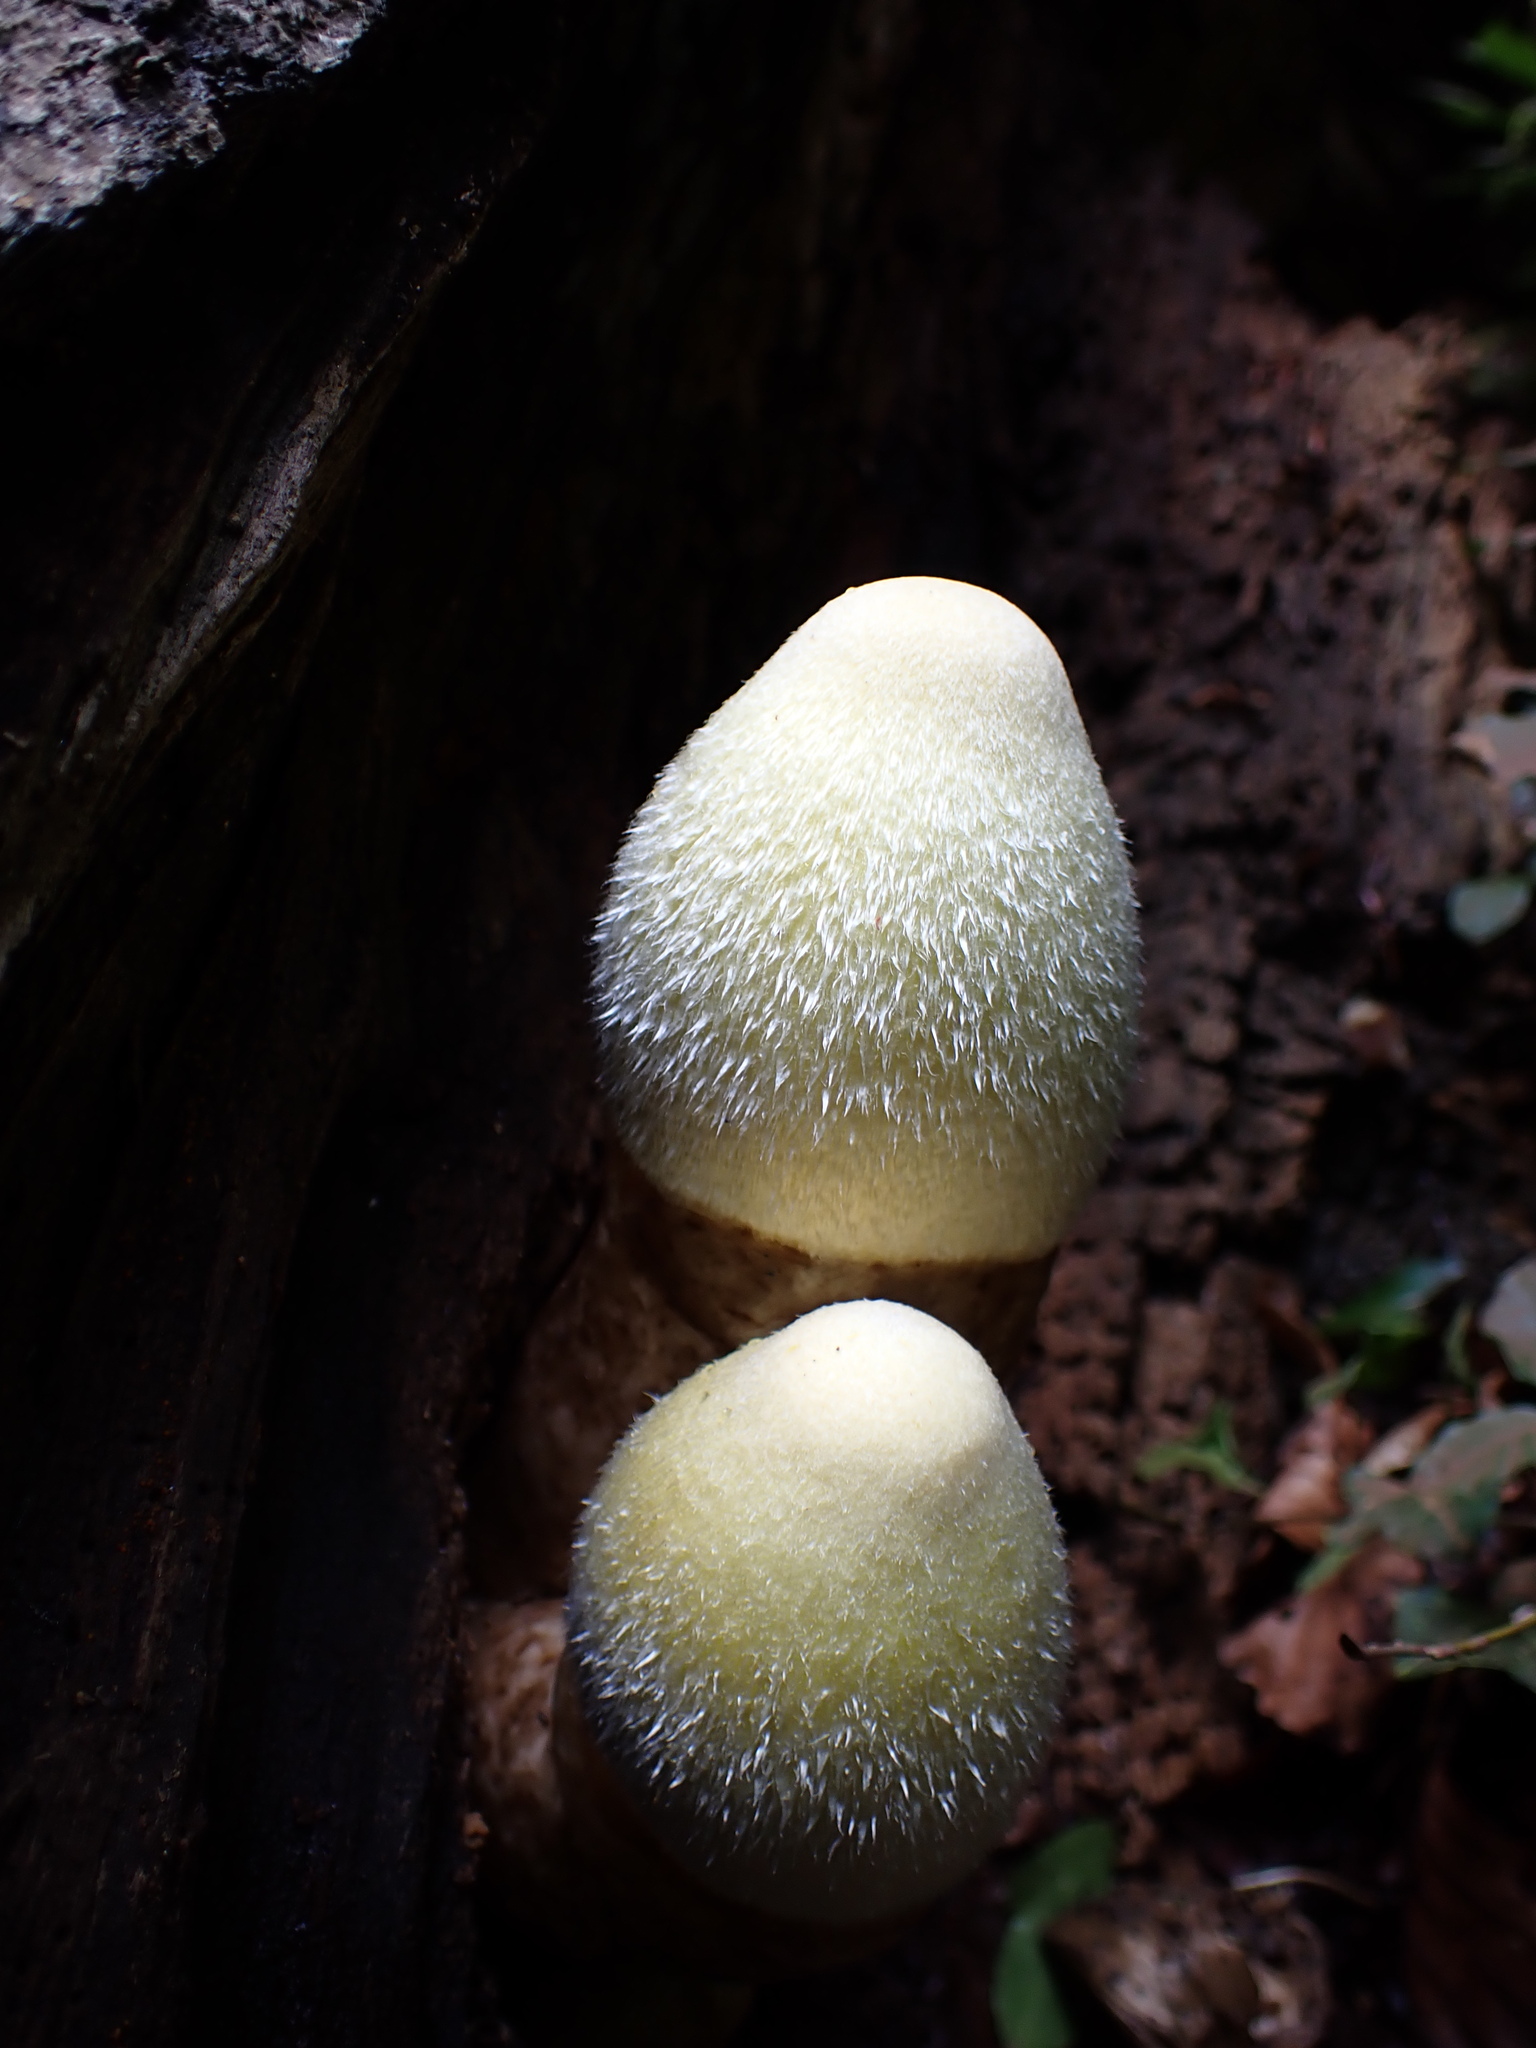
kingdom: Fungi
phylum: Basidiomycota
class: Agaricomycetes
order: Agaricales
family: Pluteaceae
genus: Volvariella
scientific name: Volvariella bombycina
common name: Silky rosegill
